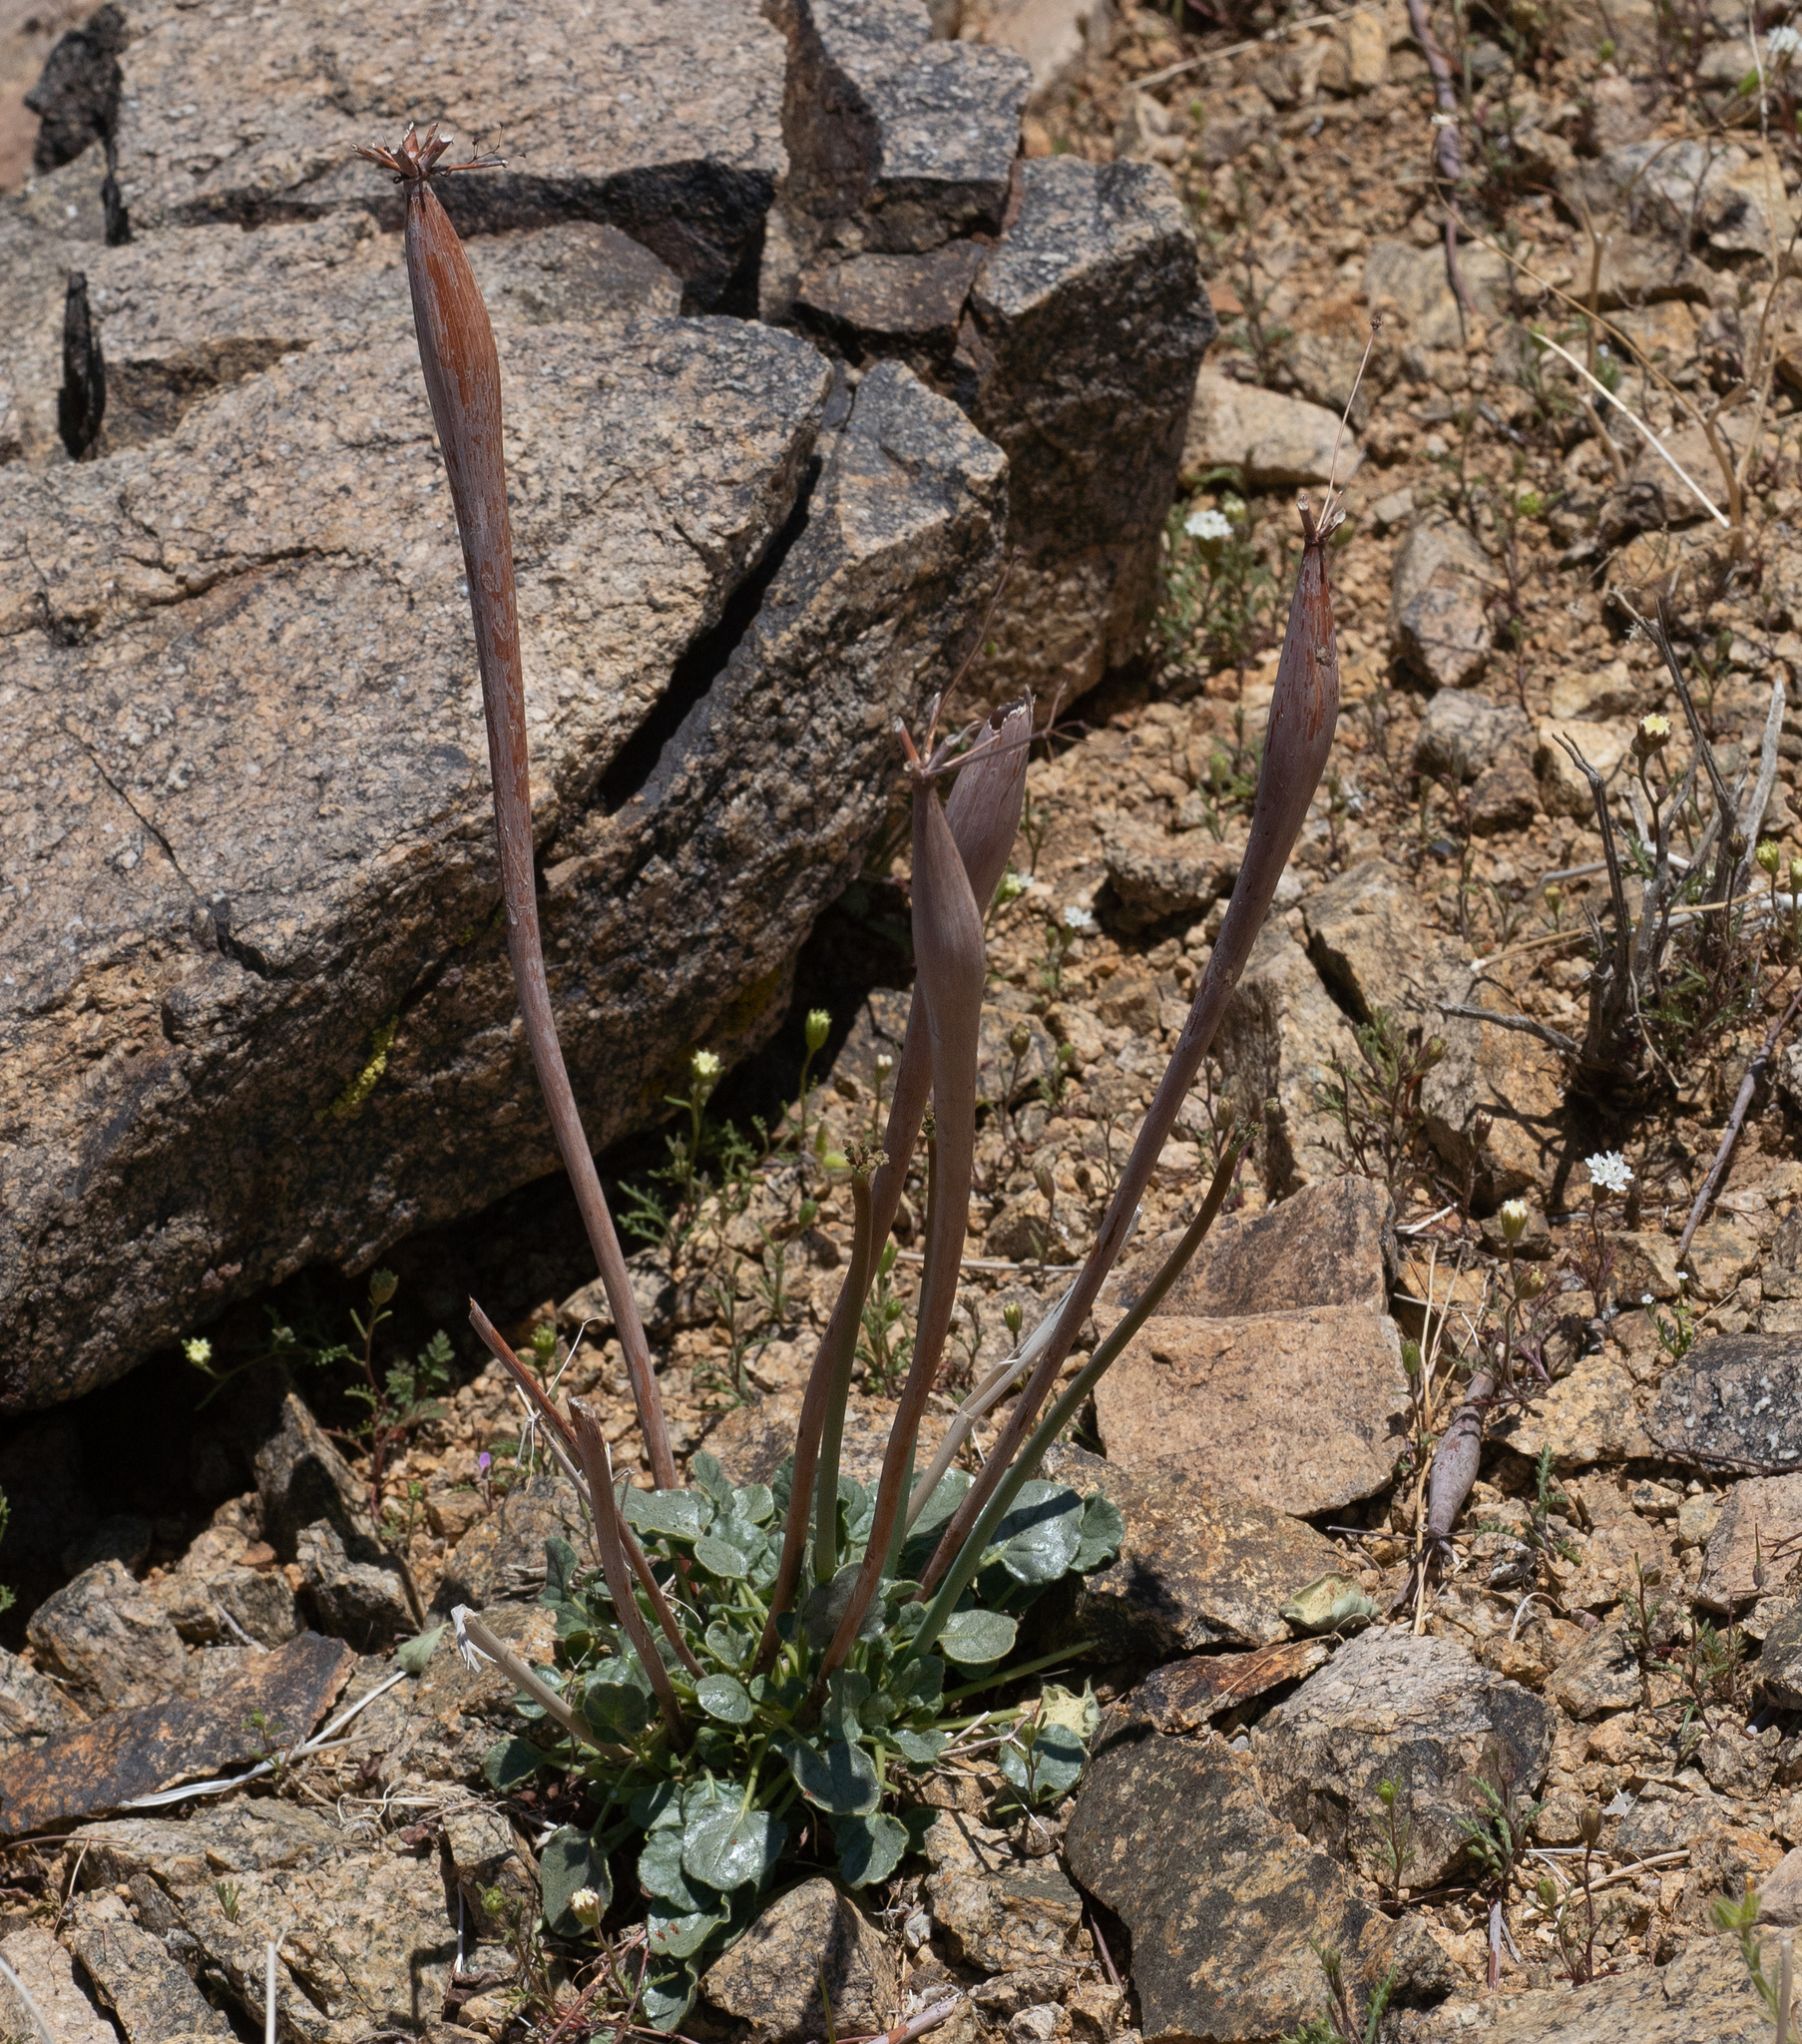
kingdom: Plantae
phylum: Tracheophyta
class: Magnoliopsida
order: Caryophyllales
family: Polygonaceae
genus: Eriogonum
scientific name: Eriogonum inflatum
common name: Desert trumpet
